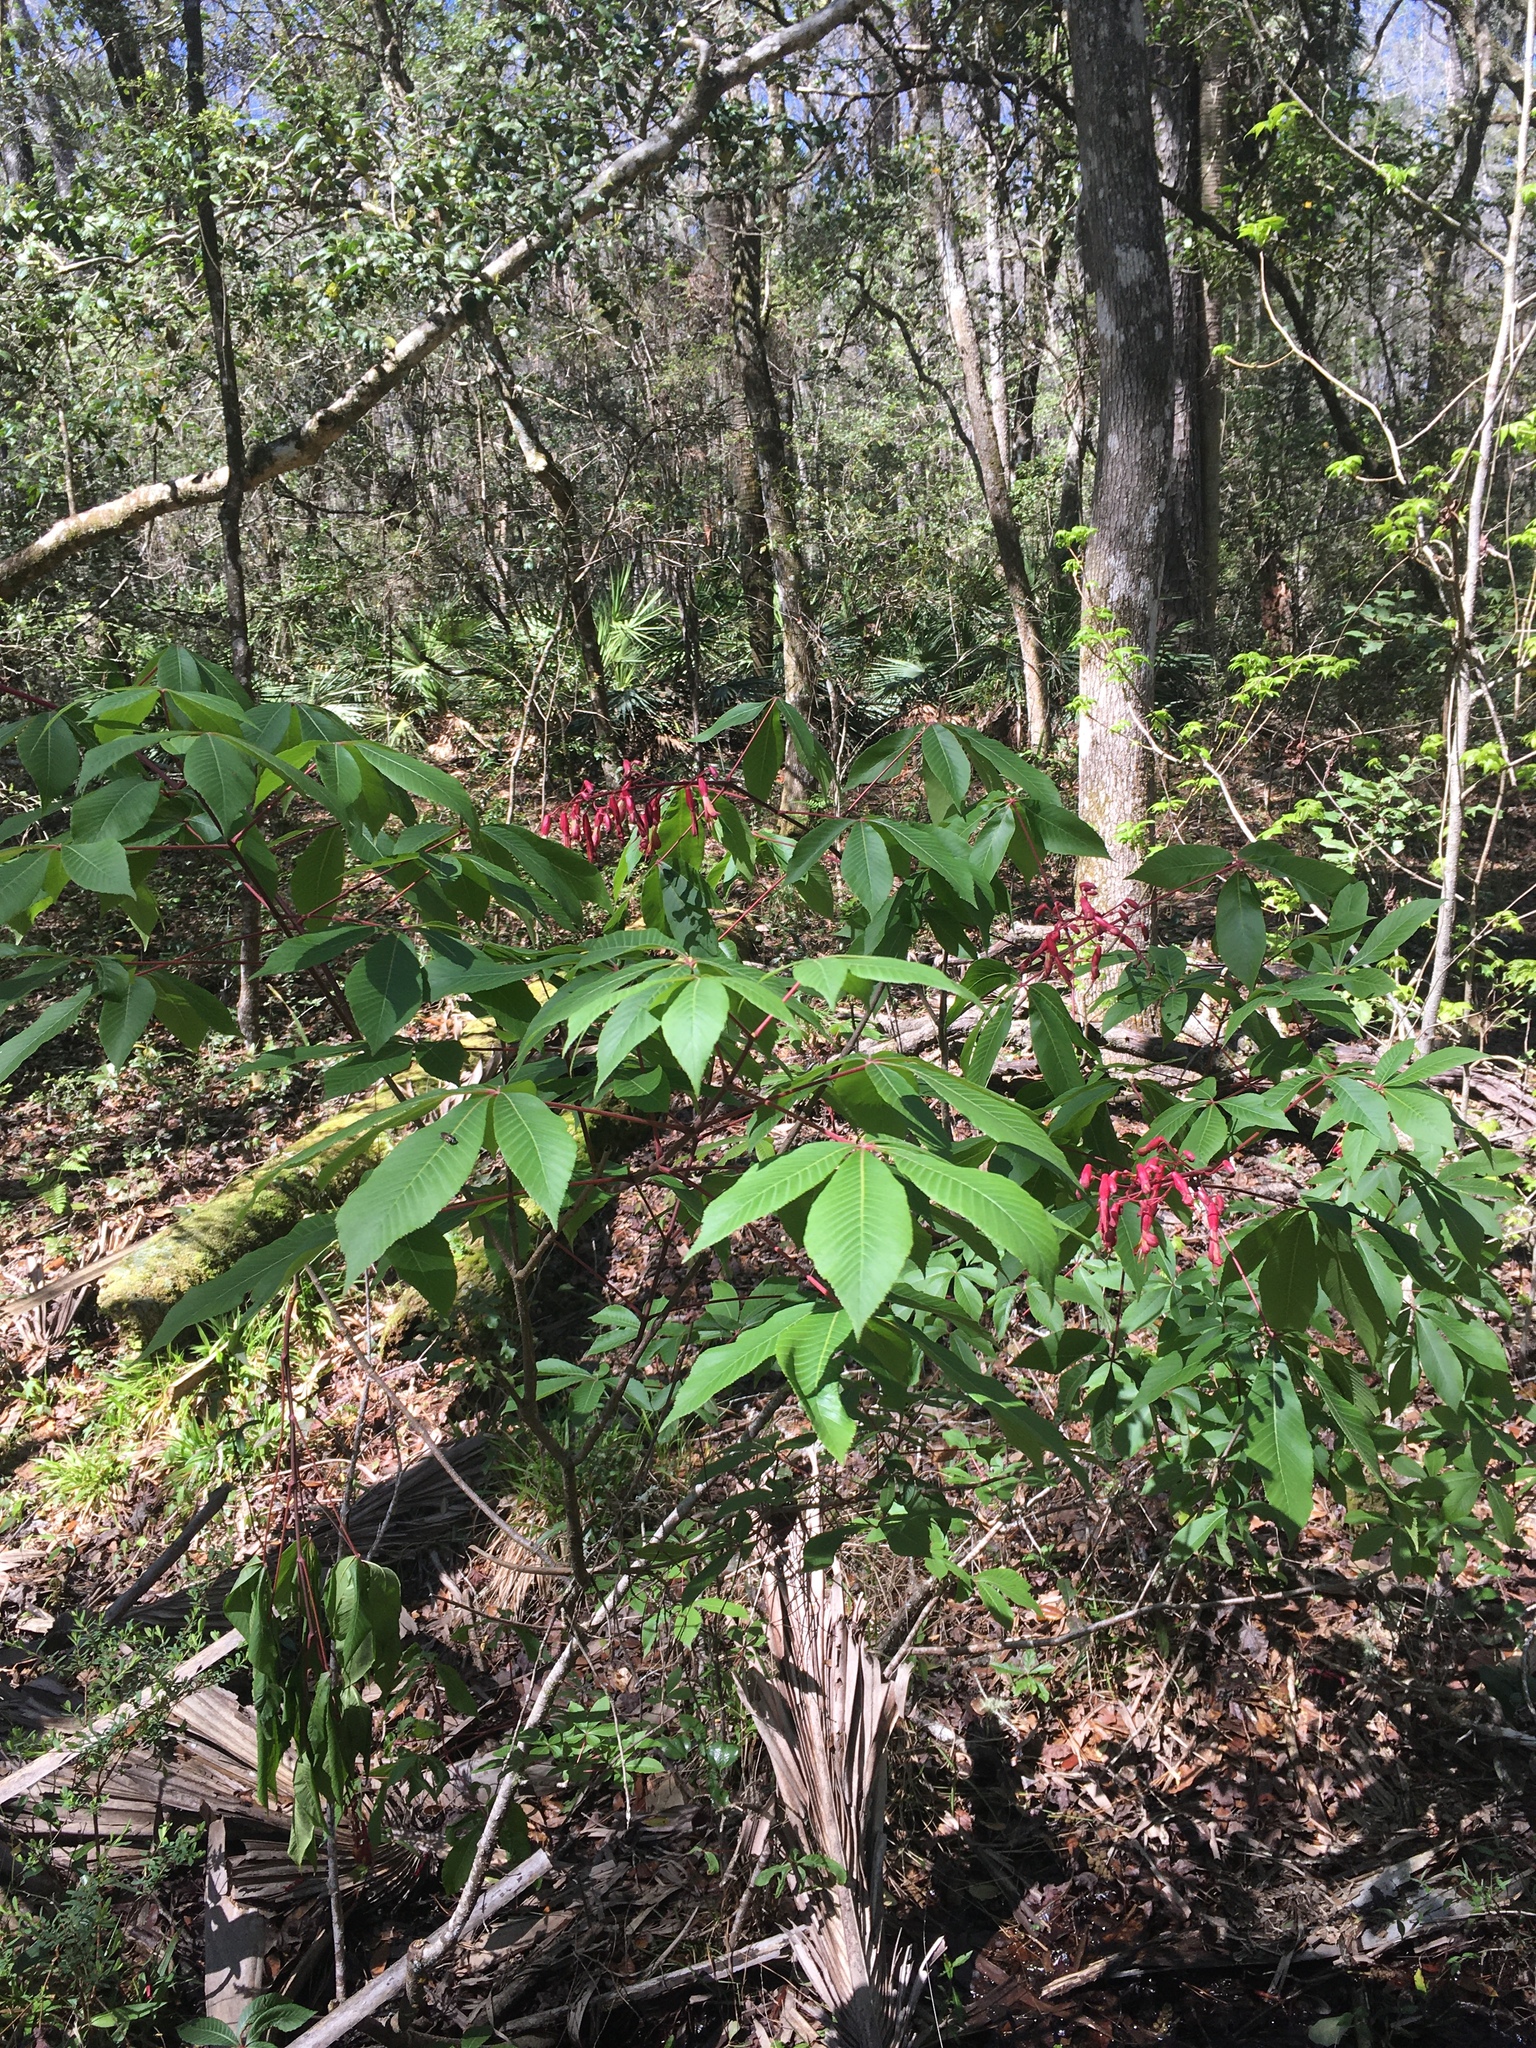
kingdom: Plantae
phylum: Tracheophyta
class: Magnoliopsida
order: Sapindales
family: Sapindaceae
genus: Aesculus
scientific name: Aesculus pavia
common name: Red buckeye
